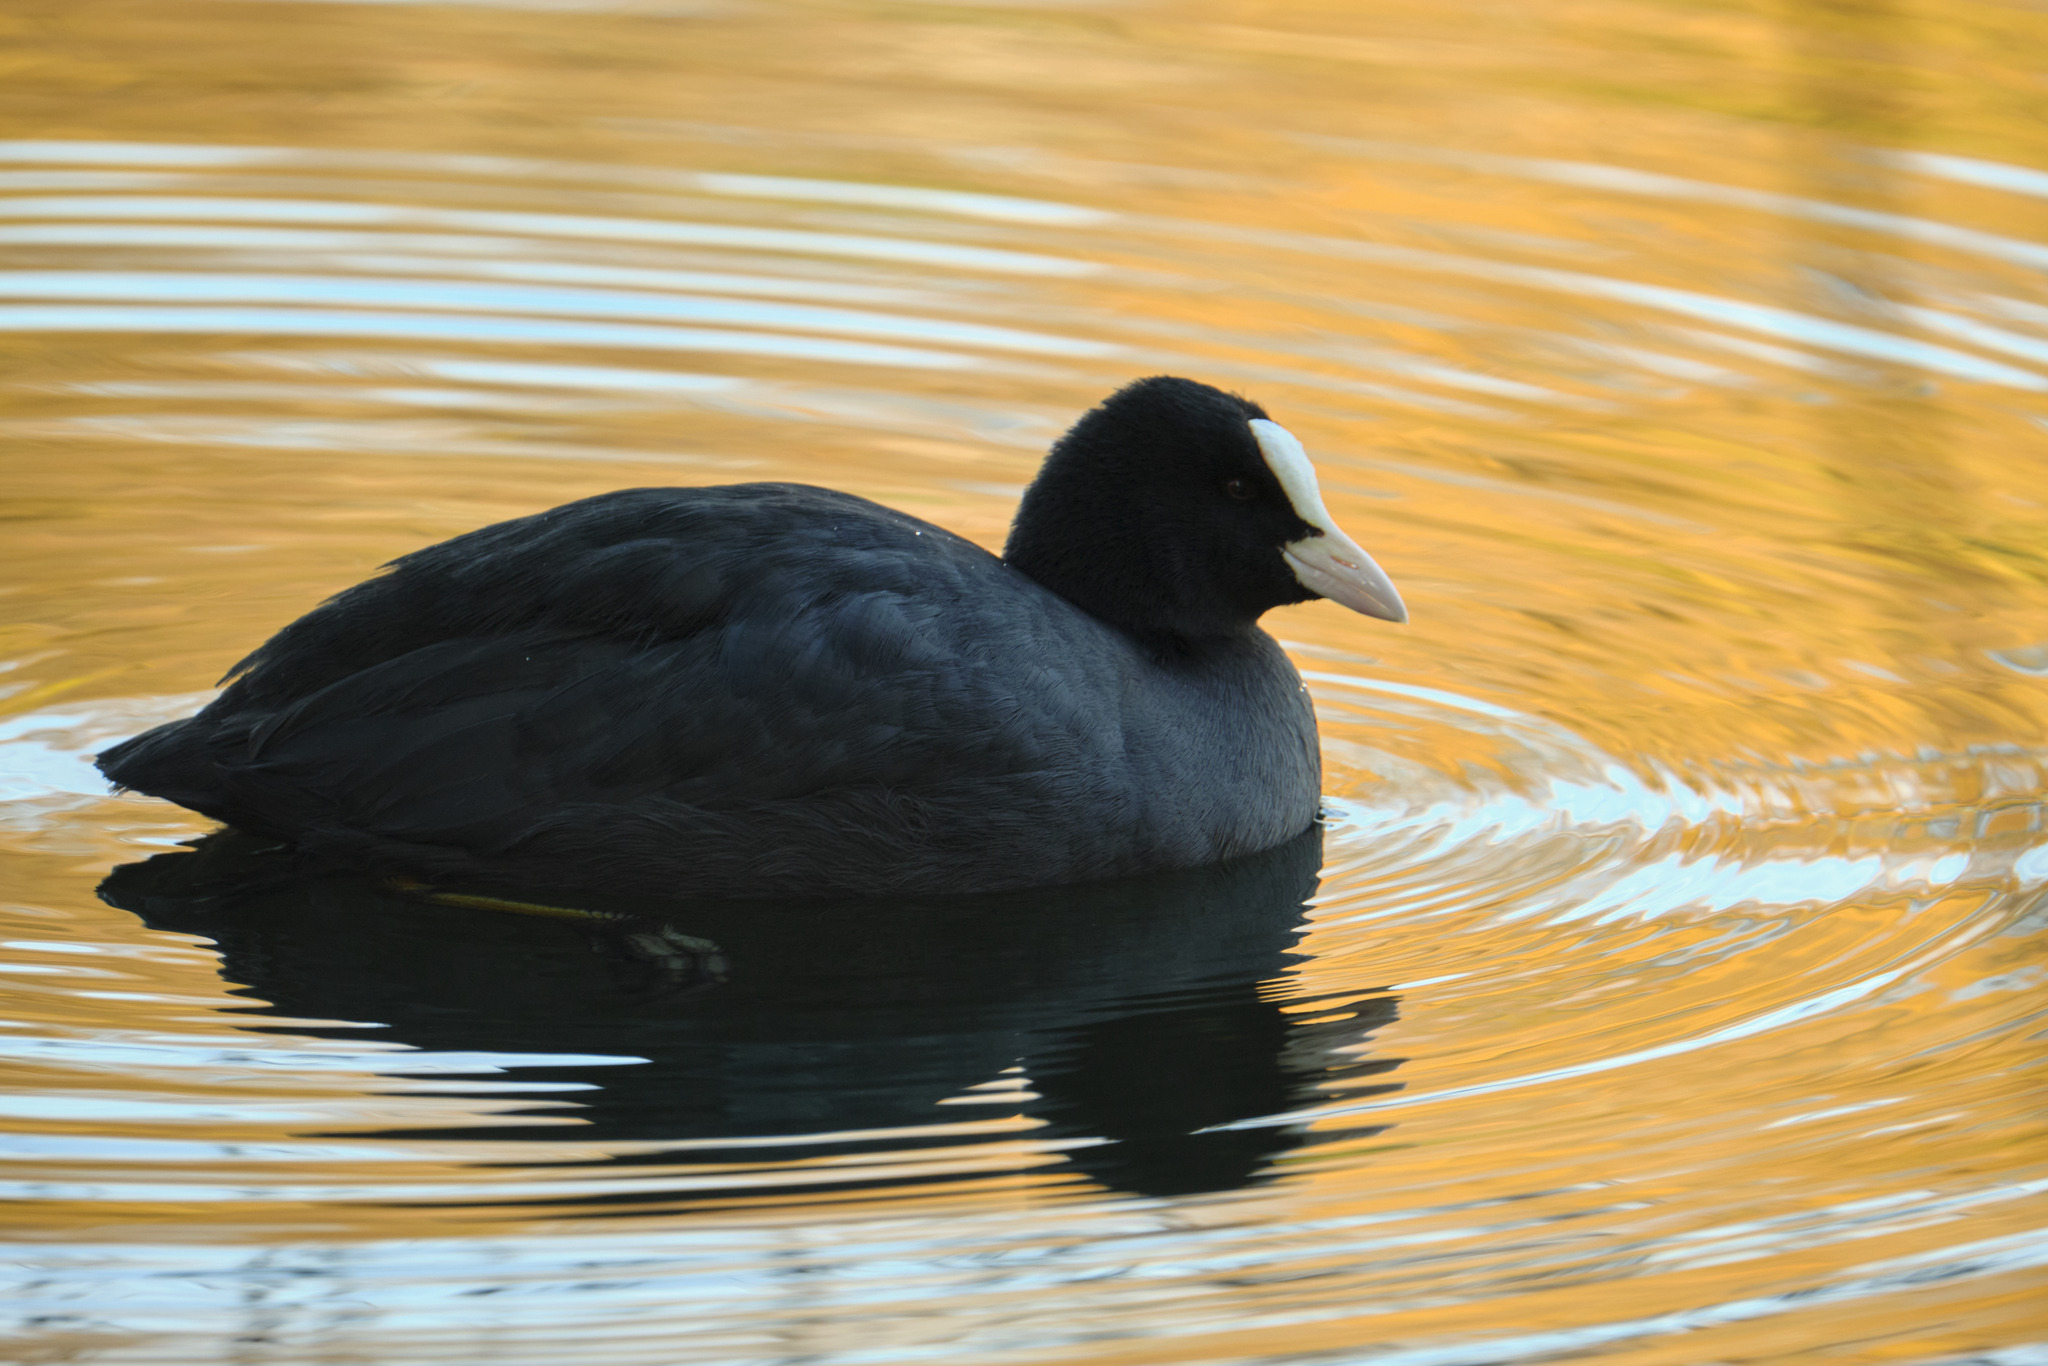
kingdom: Animalia
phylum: Chordata
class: Aves
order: Gruiformes
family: Rallidae
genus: Fulica
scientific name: Fulica atra
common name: Eurasian coot
